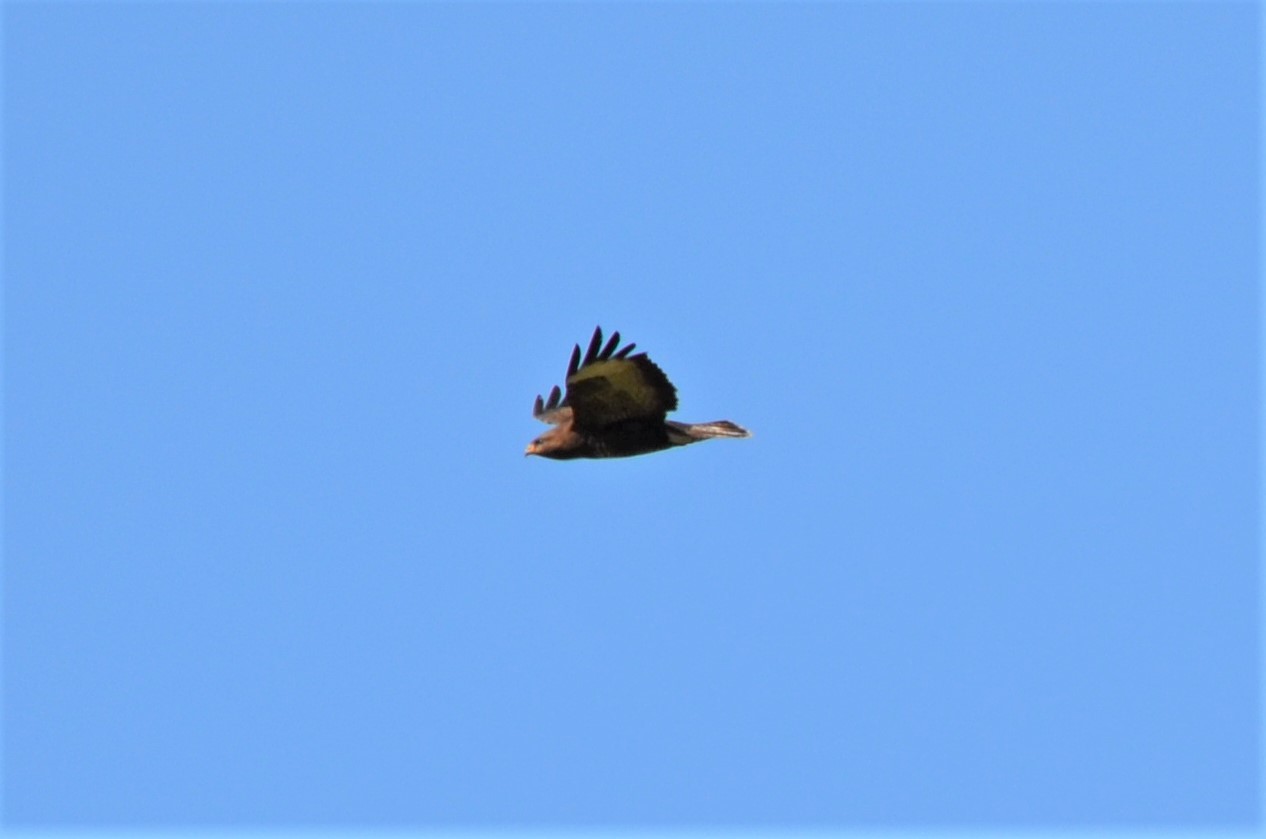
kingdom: Animalia
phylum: Chordata
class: Aves
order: Accipitriformes
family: Accipitridae
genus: Buteo
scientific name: Buteo buteo
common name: Common buzzard
